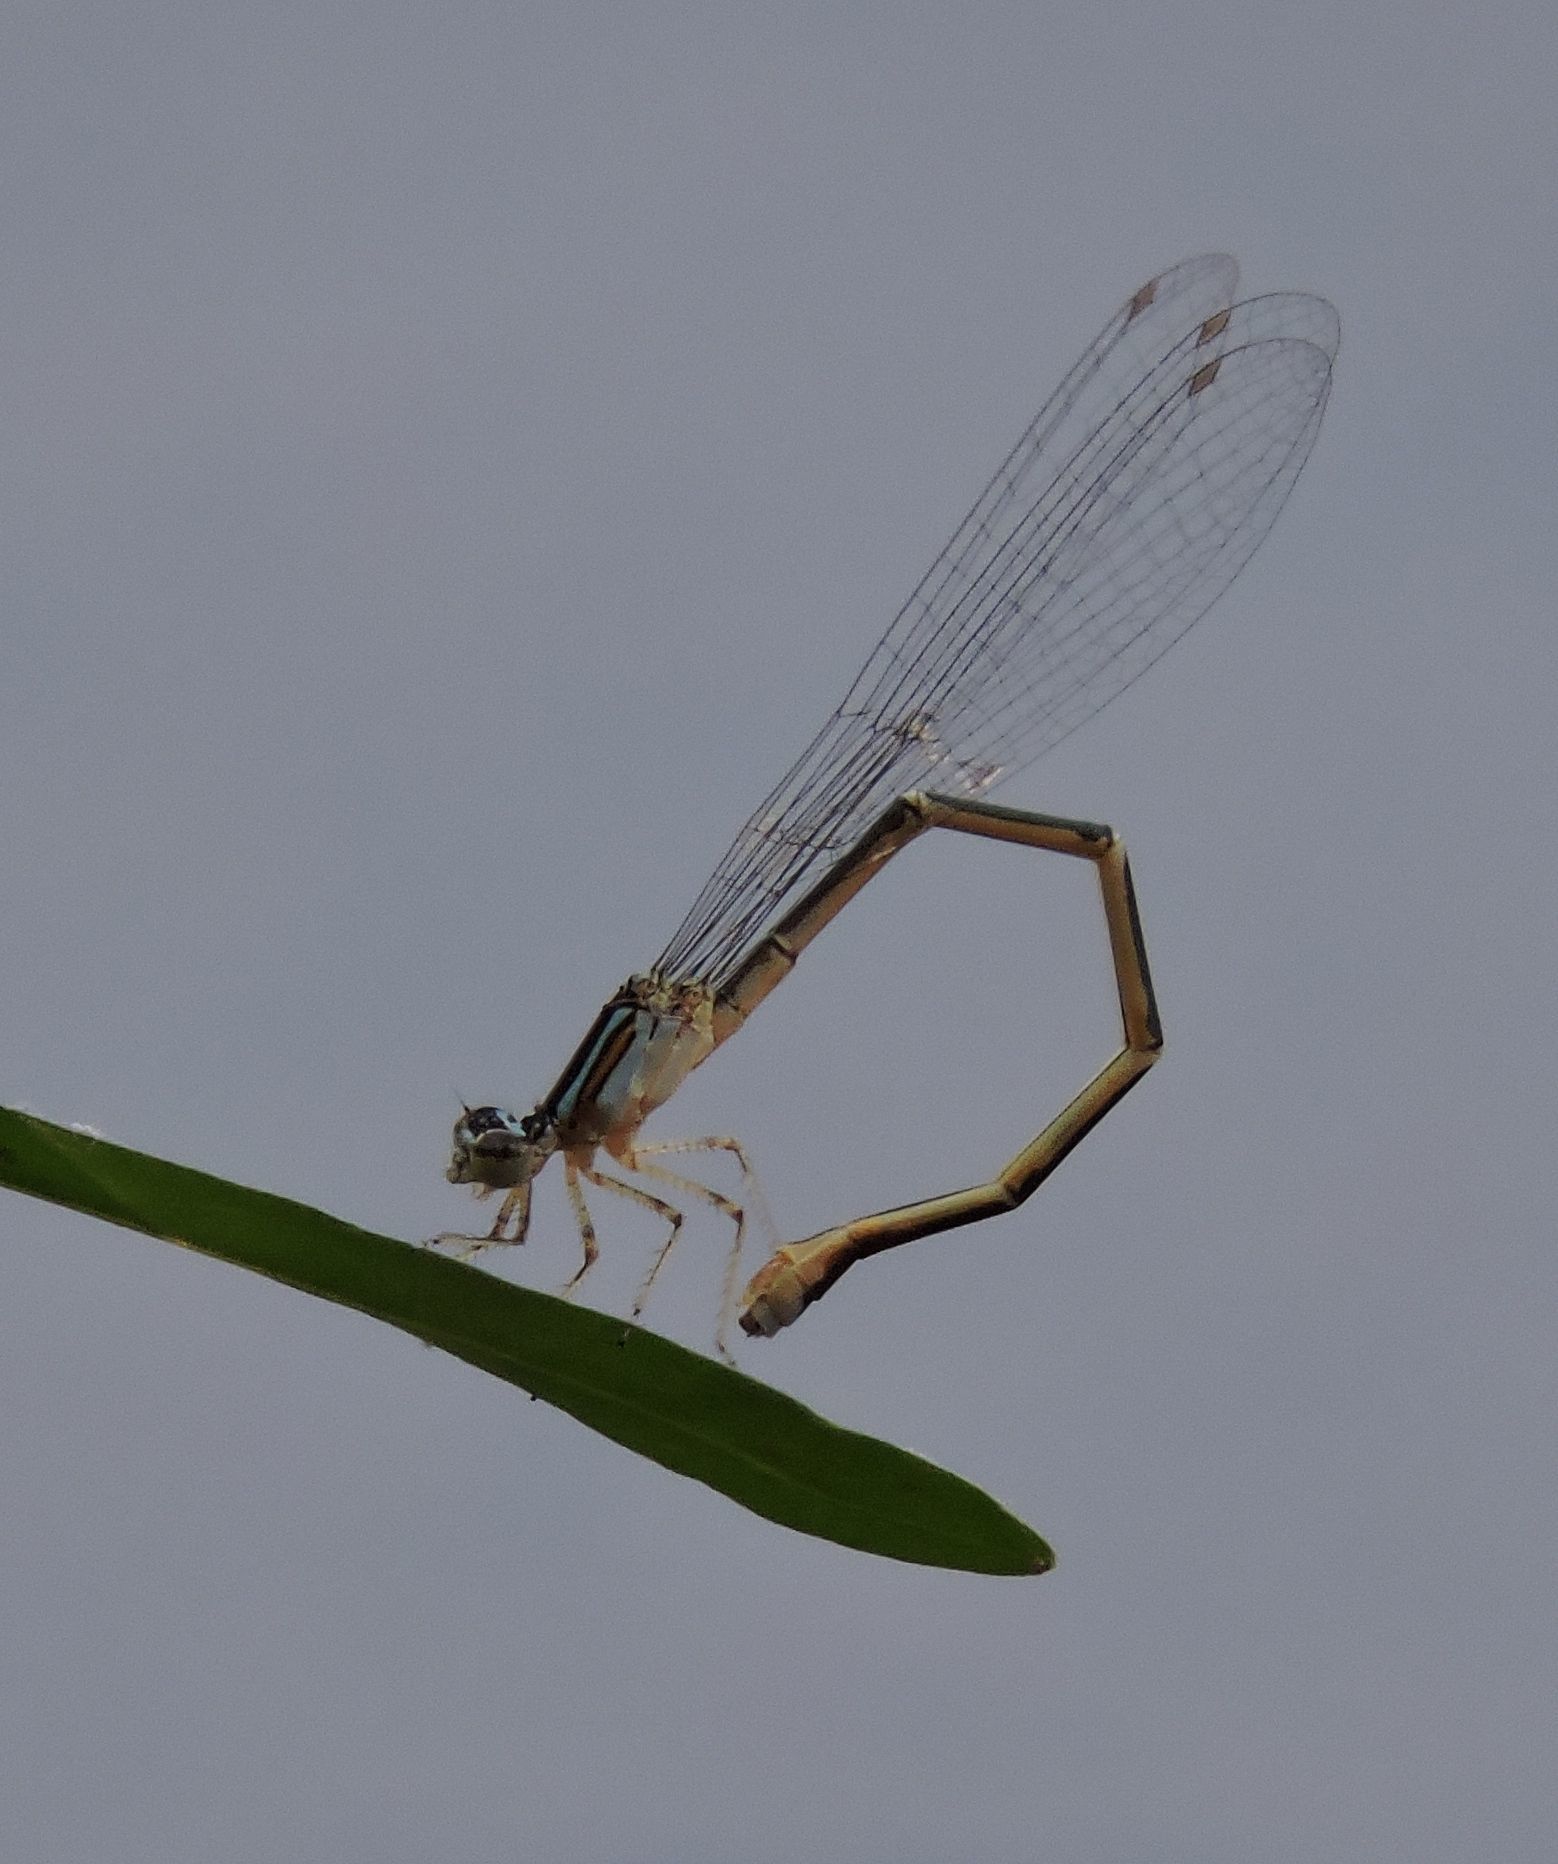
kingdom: Animalia
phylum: Arthropoda
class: Insecta
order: Odonata
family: Coenagrionidae
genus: Enallagma
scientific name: Enallagma exsulans
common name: Stream bluet
